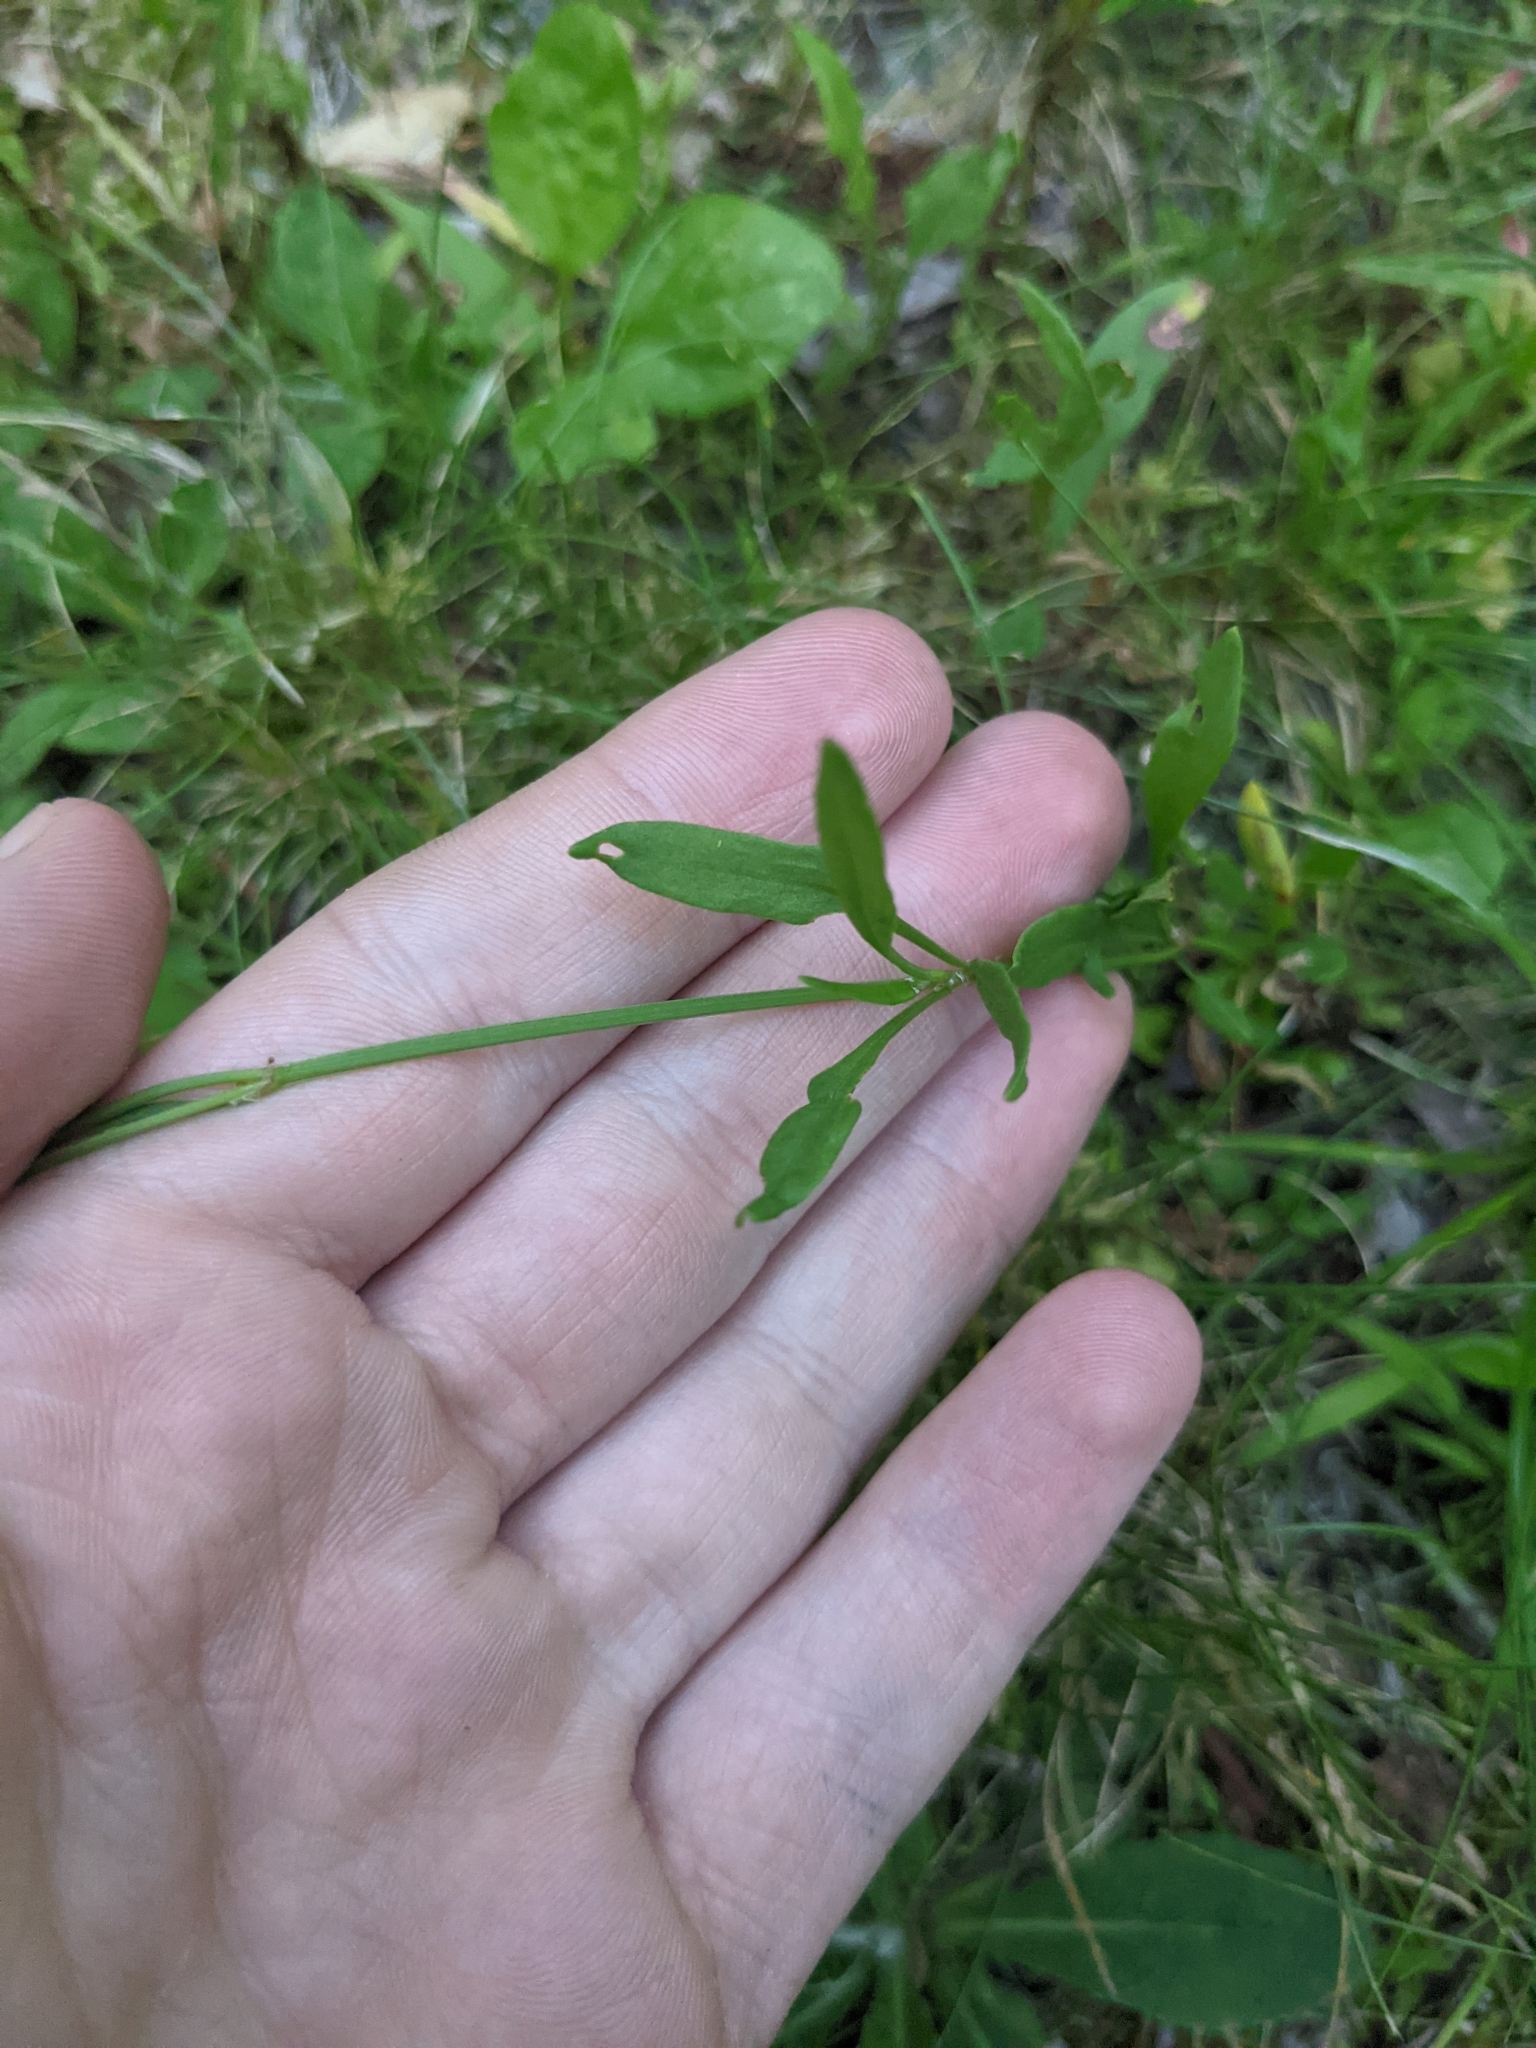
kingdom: Plantae
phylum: Tracheophyta
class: Magnoliopsida
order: Caryophyllales
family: Polygonaceae
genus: Rumex
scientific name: Rumex acetosella
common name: Common sheep sorrel
